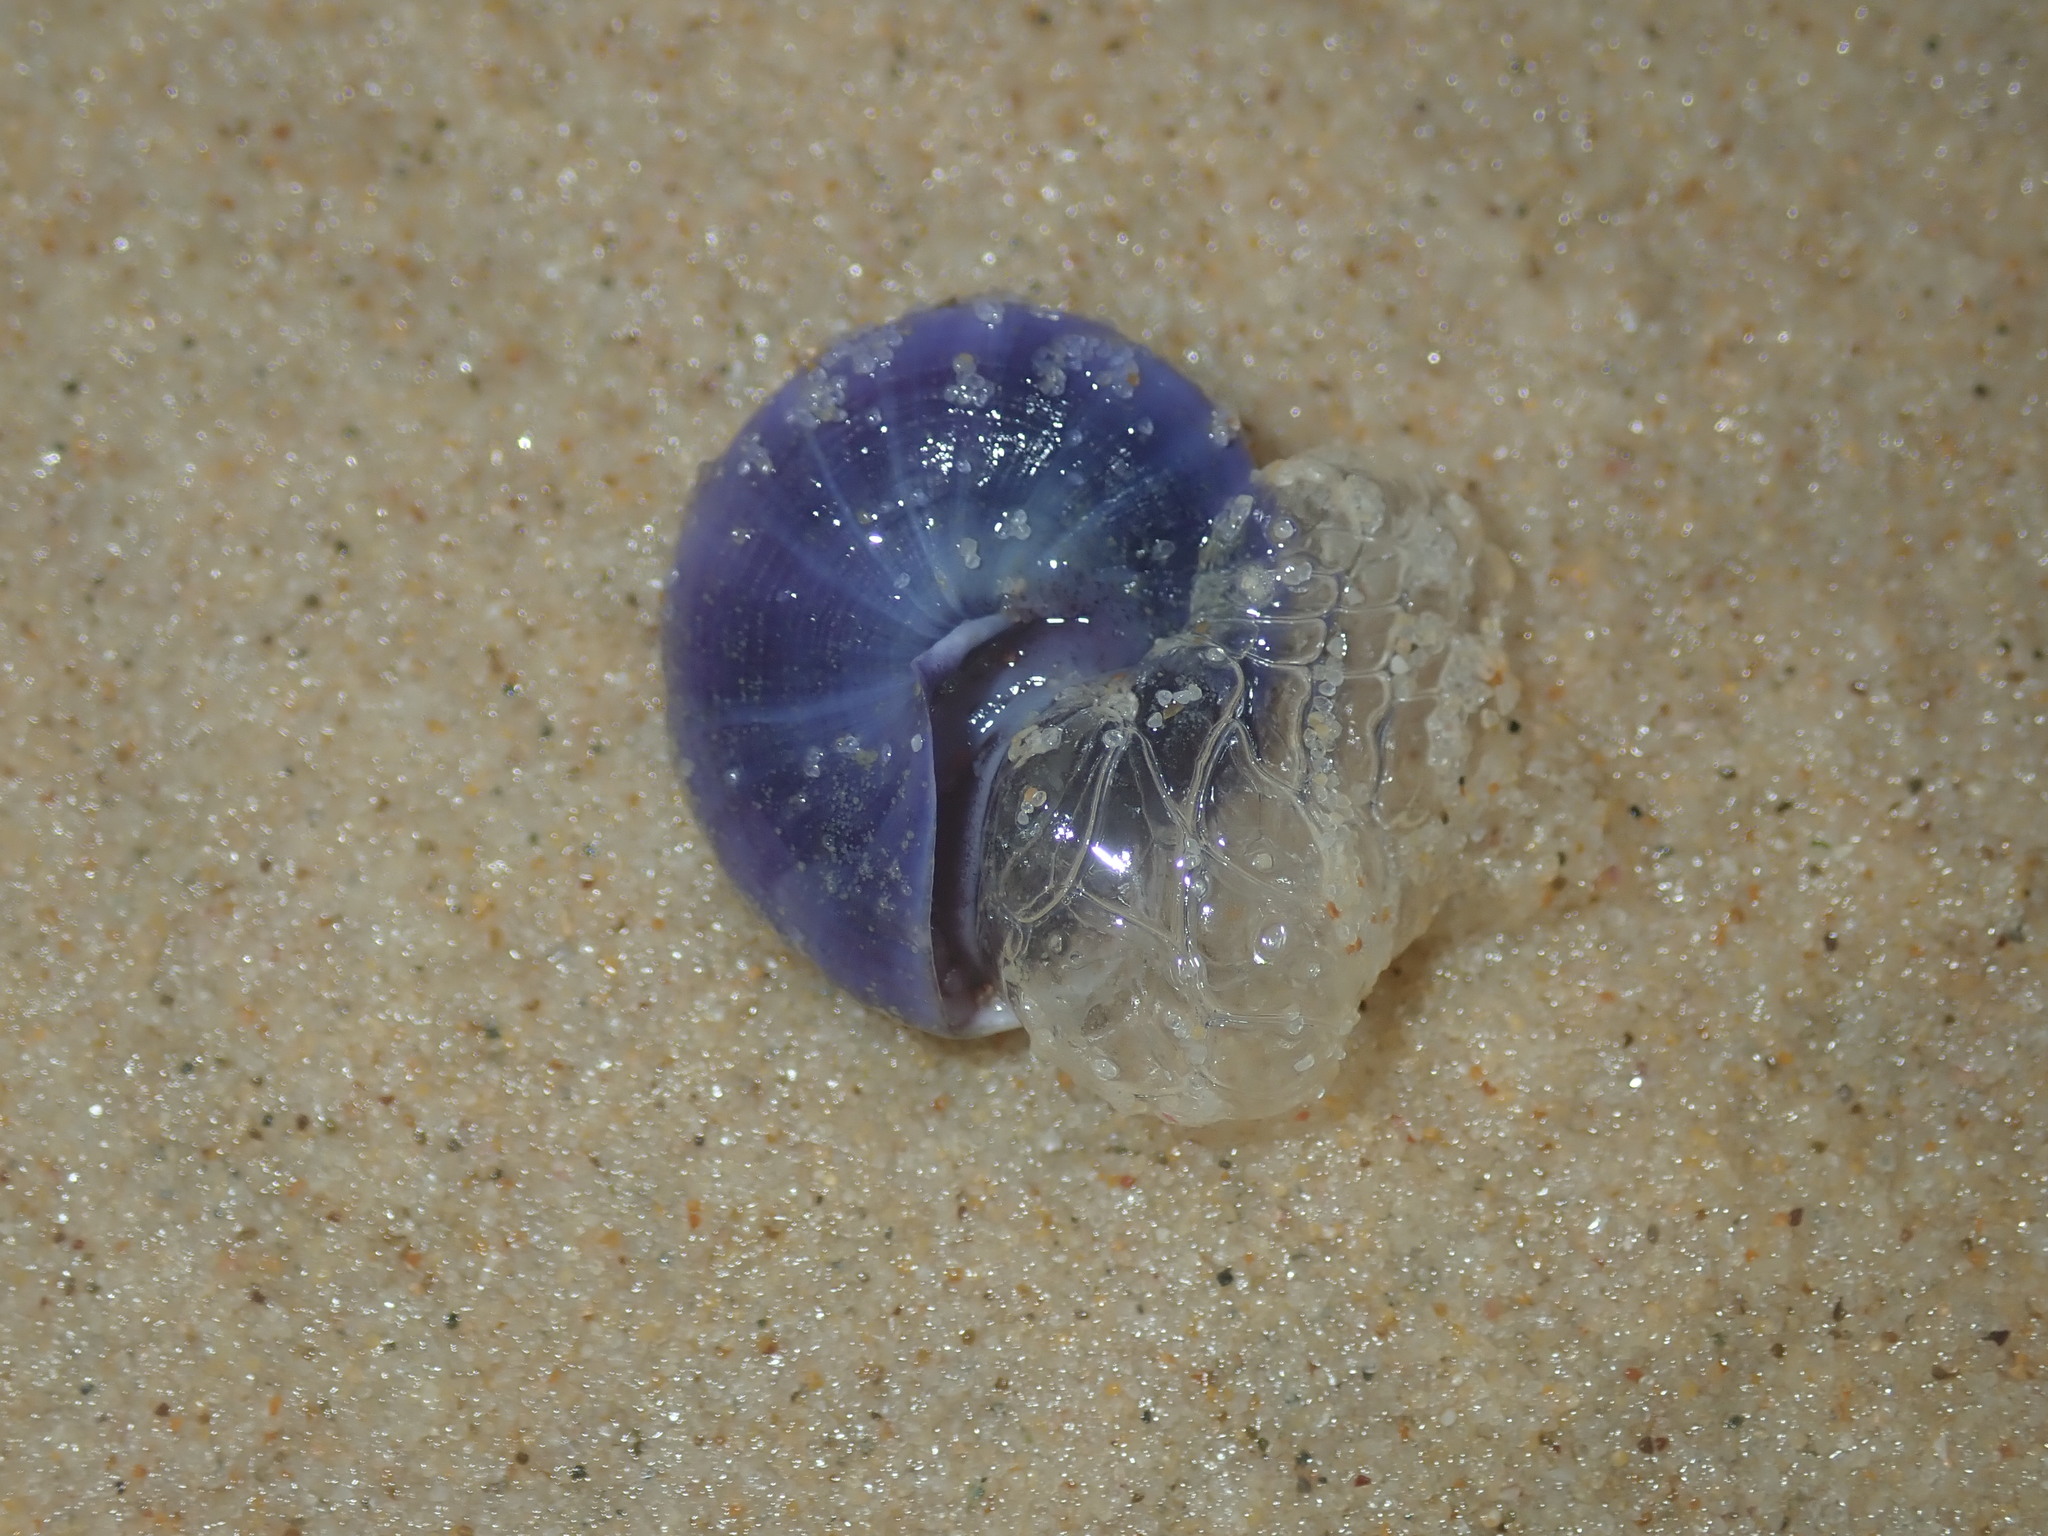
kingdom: Animalia
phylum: Mollusca
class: Gastropoda
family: Epitoniidae
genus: Janthina
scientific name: Janthina janthina
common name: Common janthina
